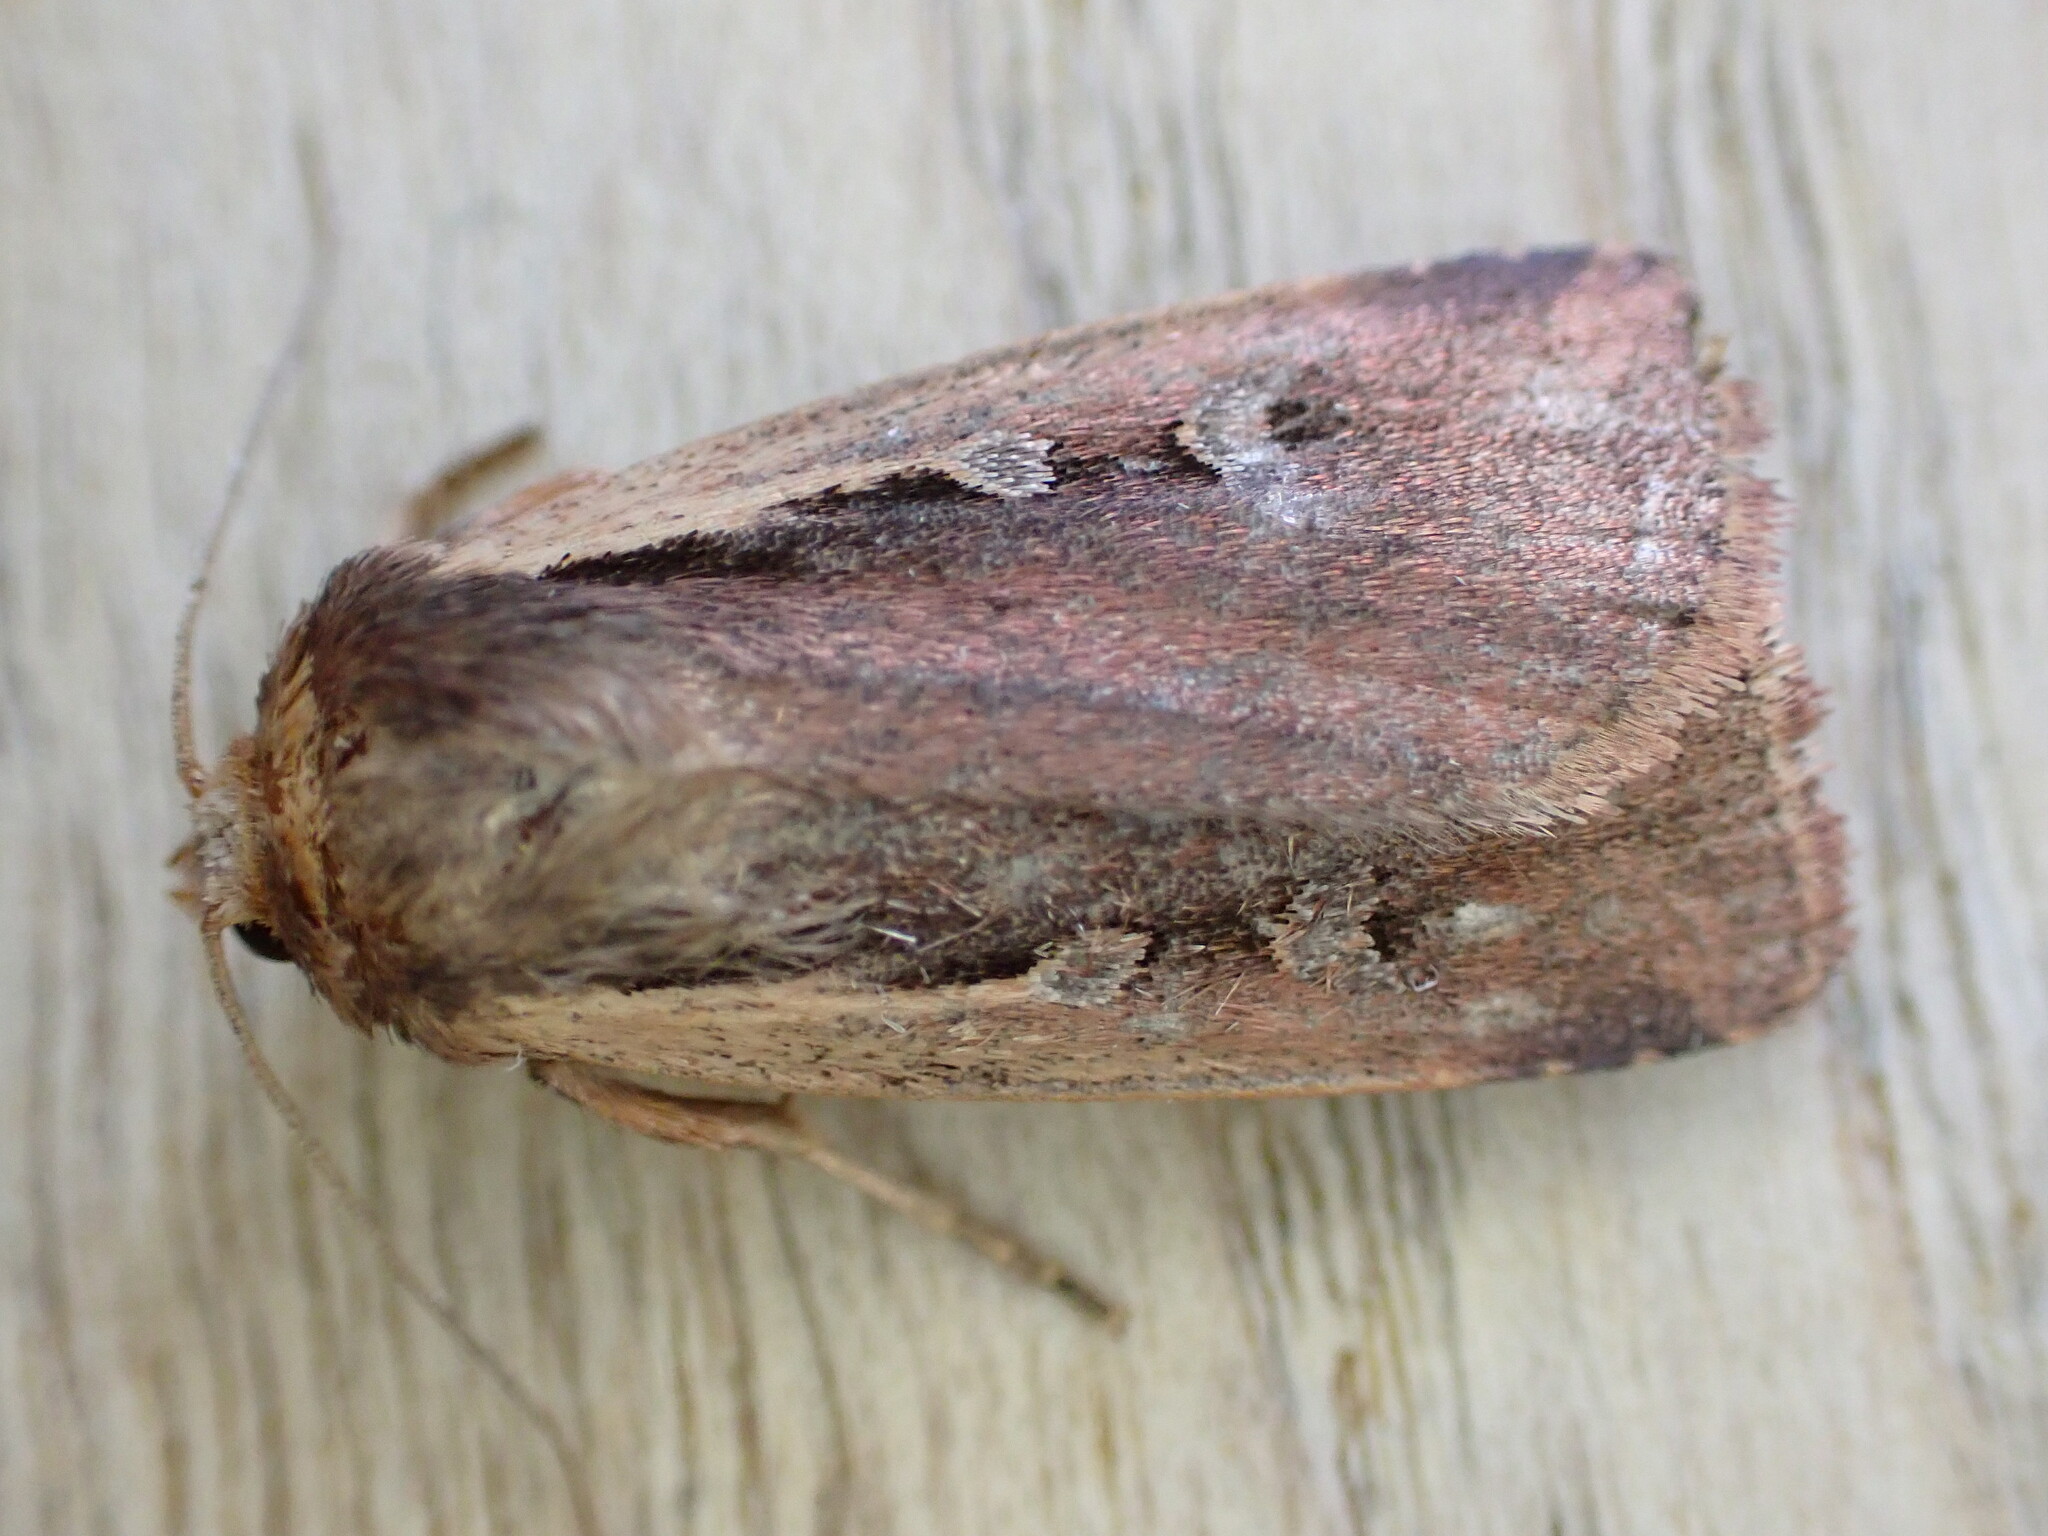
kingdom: Animalia
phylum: Arthropoda
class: Insecta
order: Lepidoptera
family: Noctuidae
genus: Ochropleura
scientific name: Ochropleura plecta
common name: Flame shoulder
